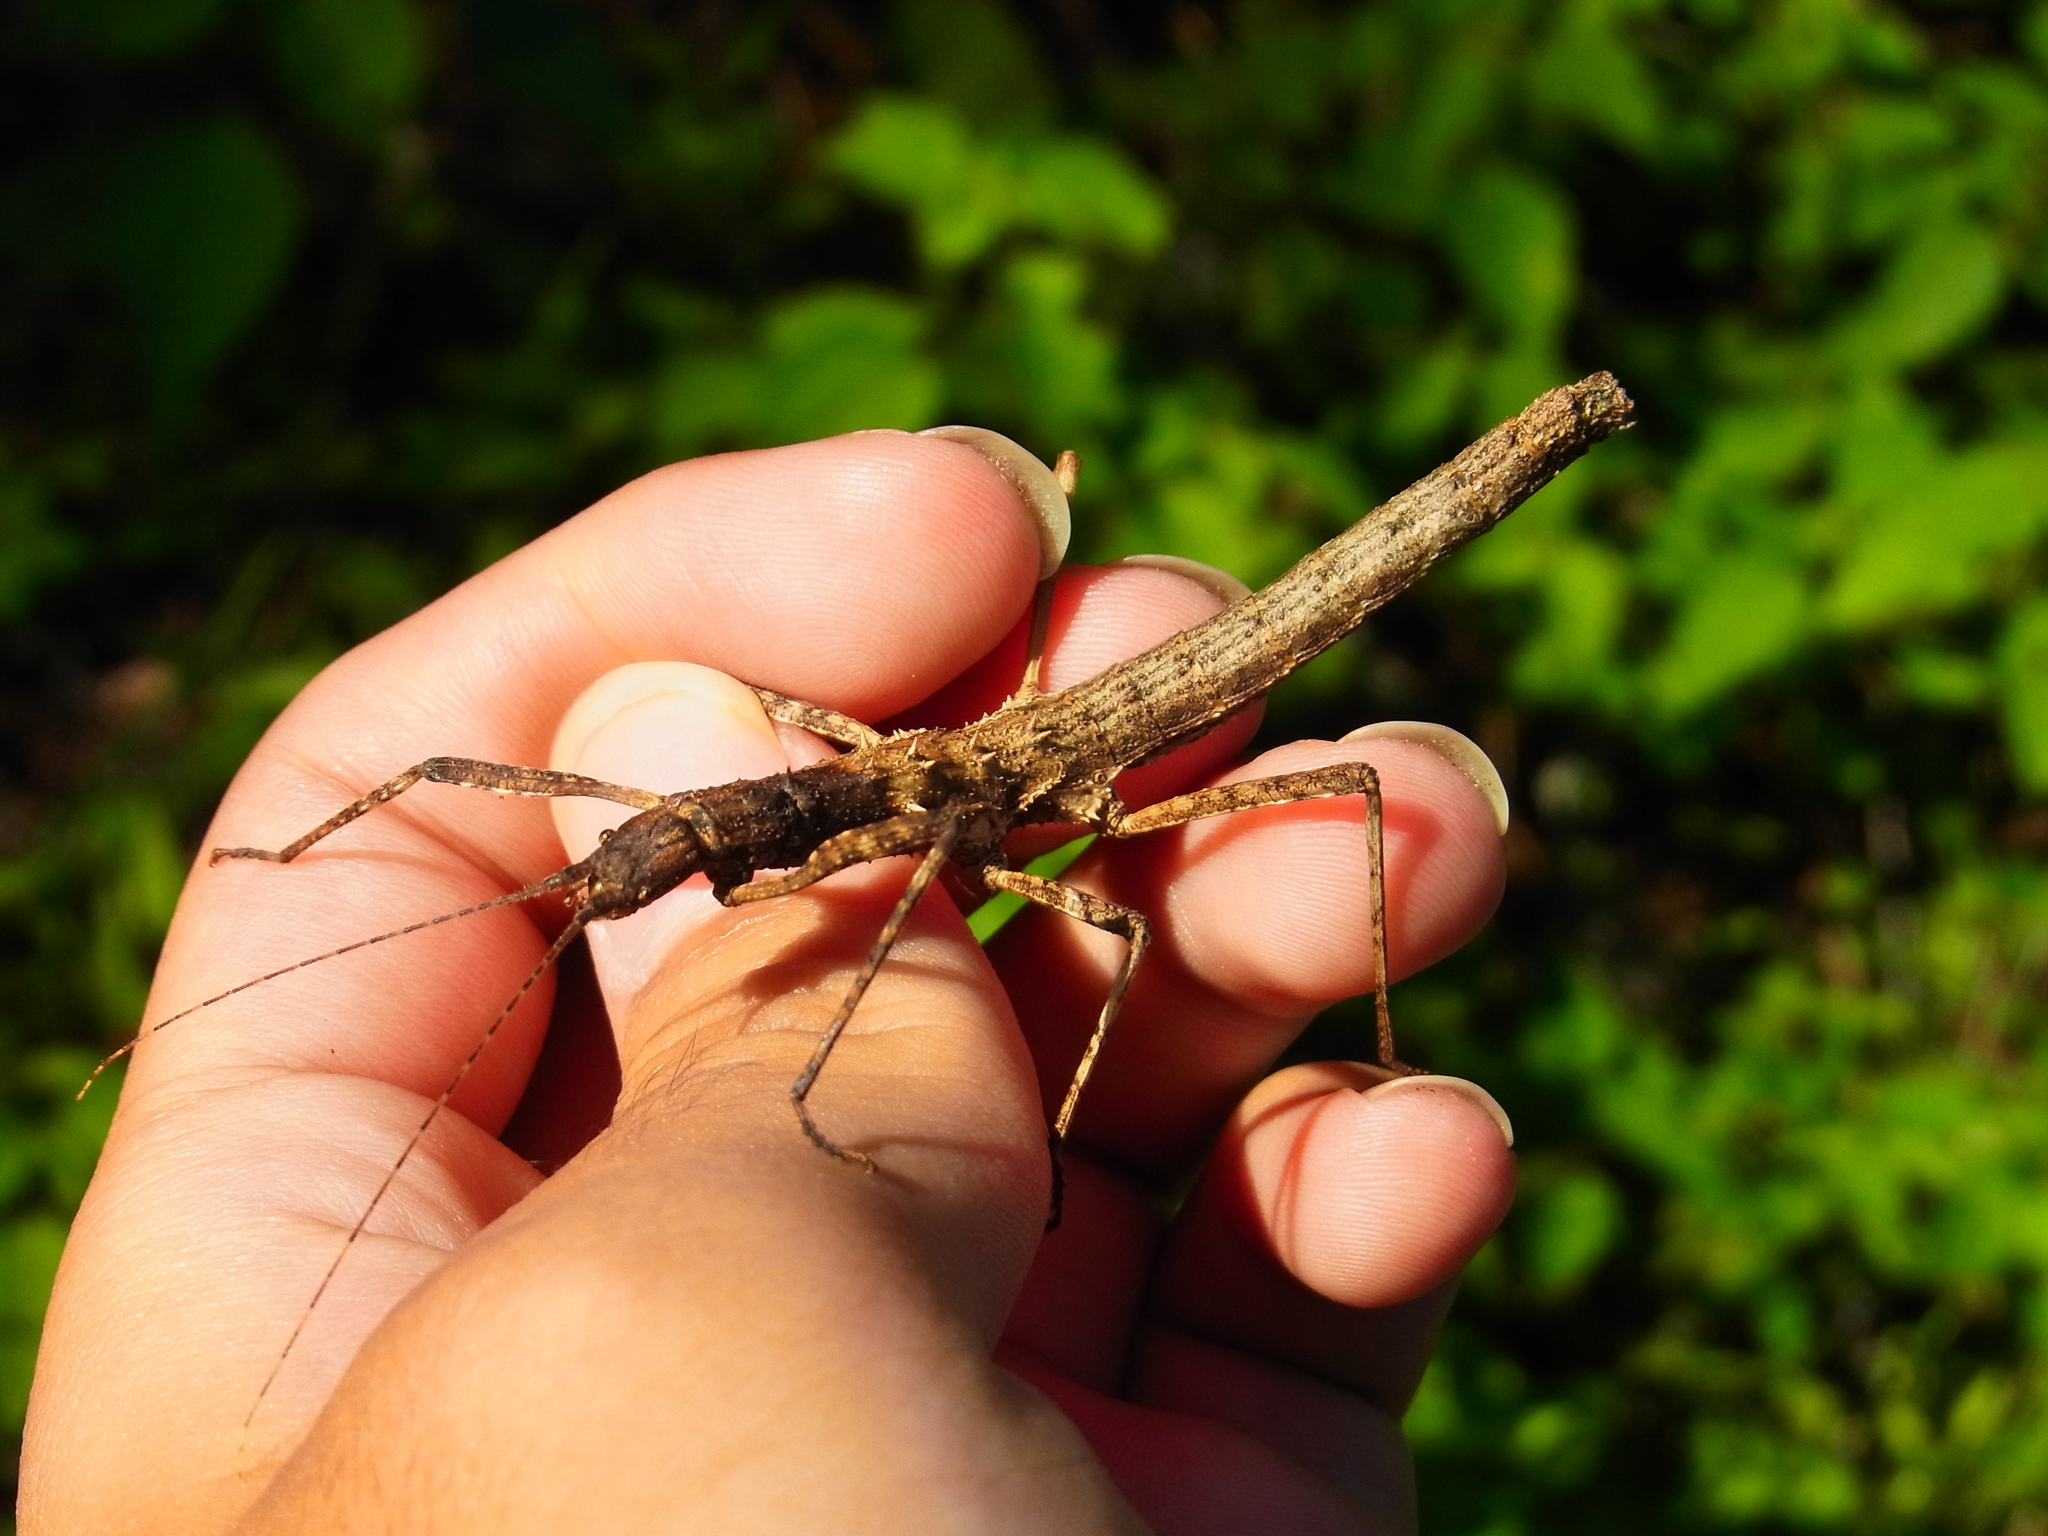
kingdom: Animalia
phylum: Arthropoda
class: Insecta
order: Phasmida
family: Lonchodidae
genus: Neohirasea
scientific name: Neohirasea japonica
